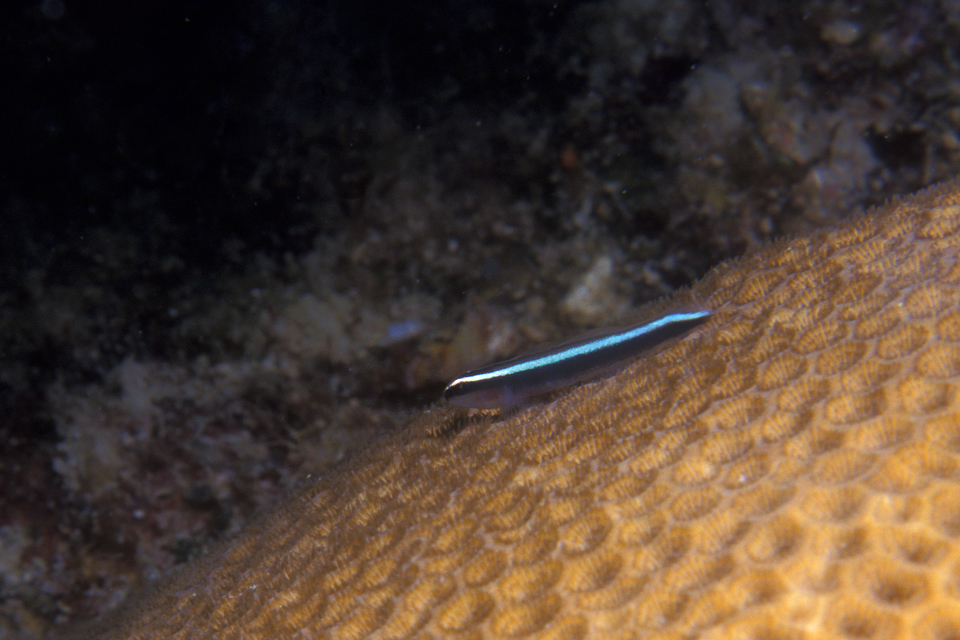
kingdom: Animalia
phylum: Chordata
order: Perciformes
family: Gobiidae
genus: Elacatinus
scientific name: Elacatinus prochilos
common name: Broadstripe goby
